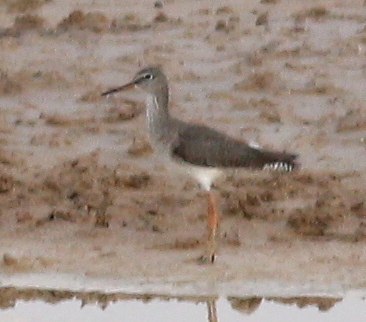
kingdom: Animalia
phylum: Chordata
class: Aves
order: Charadriiformes
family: Scolopacidae
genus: Tringa
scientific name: Tringa totanus
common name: Common redshank
